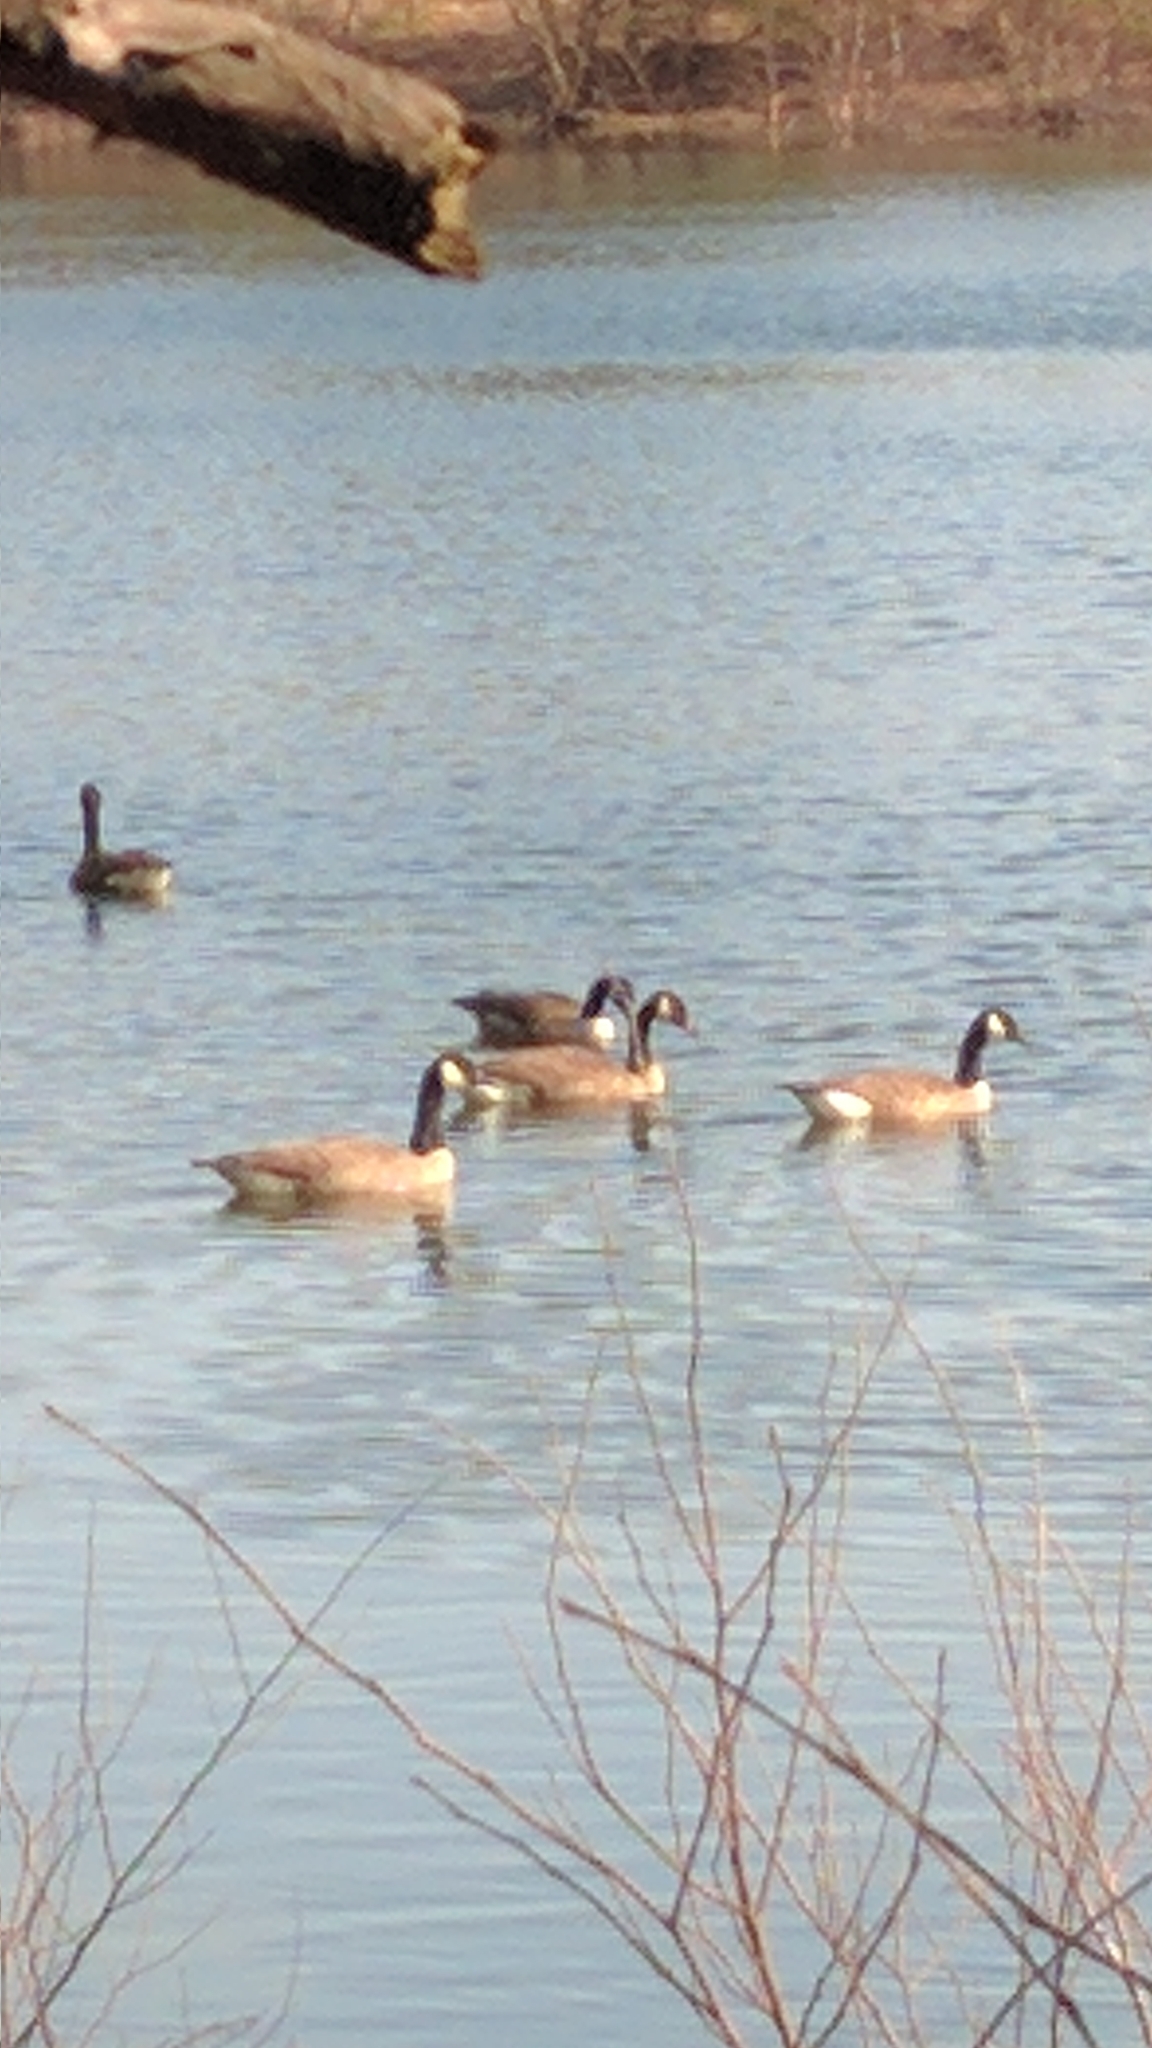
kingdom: Animalia
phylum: Chordata
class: Aves
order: Anseriformes
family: Anatidae
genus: Branta
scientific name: Branta canadensis
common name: Canada goose
